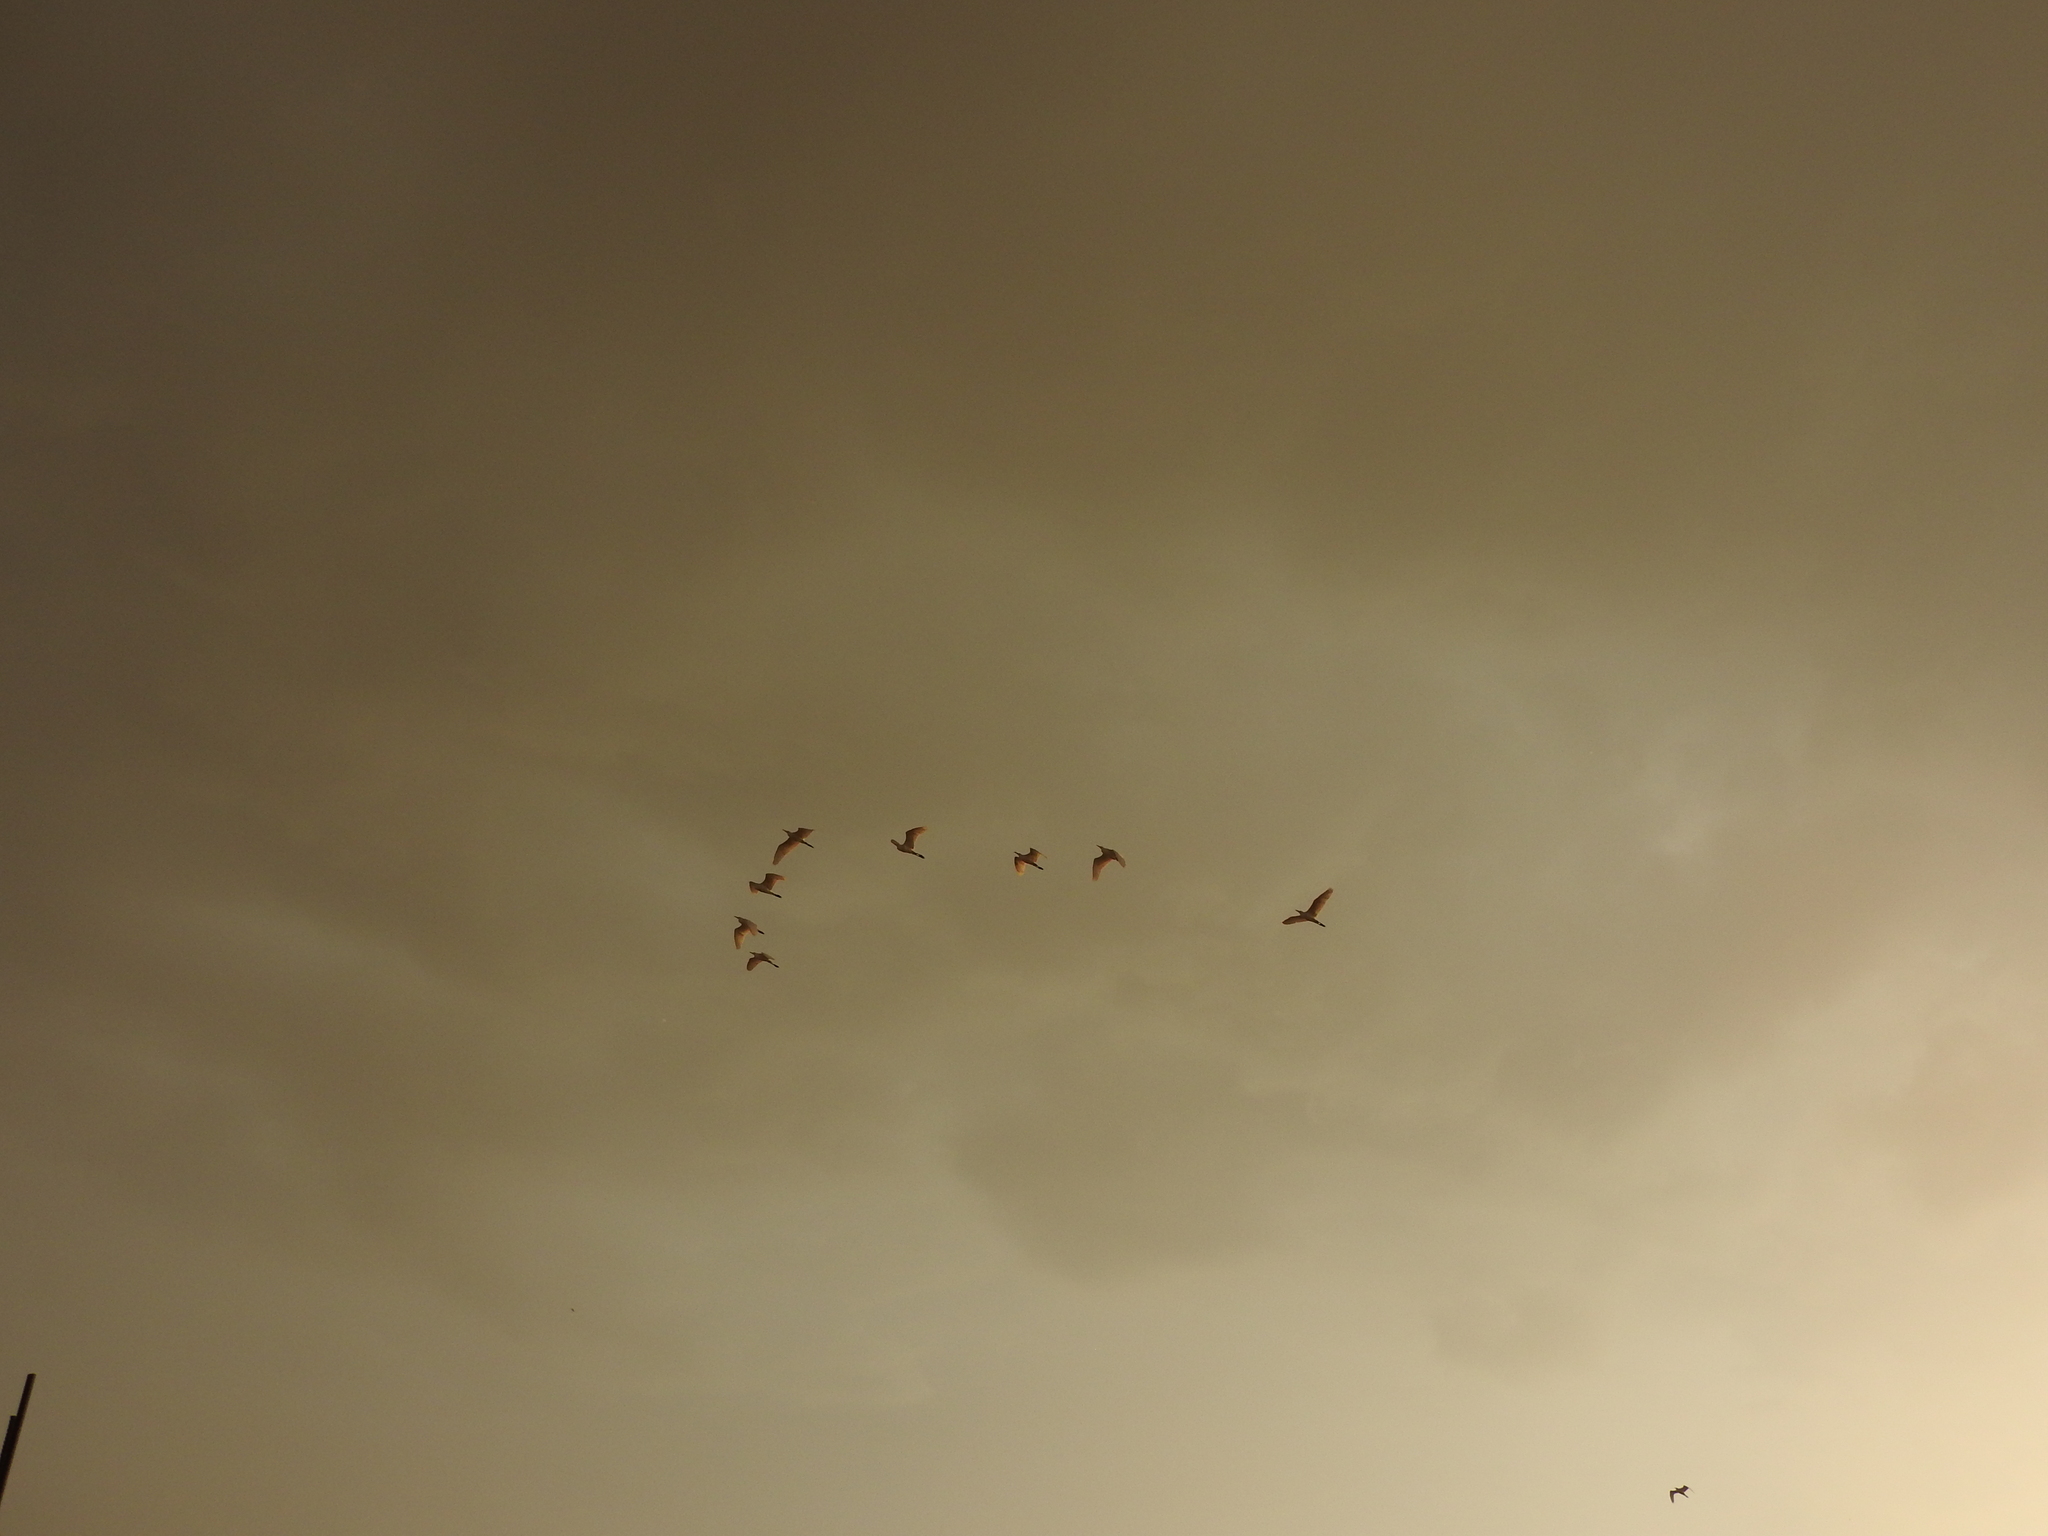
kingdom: Animalia
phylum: Chordata
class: Aves
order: Pelecaniformes
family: Ardeidae
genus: Bubulcus
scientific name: Bubulcus ibis
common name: Cattle egret
